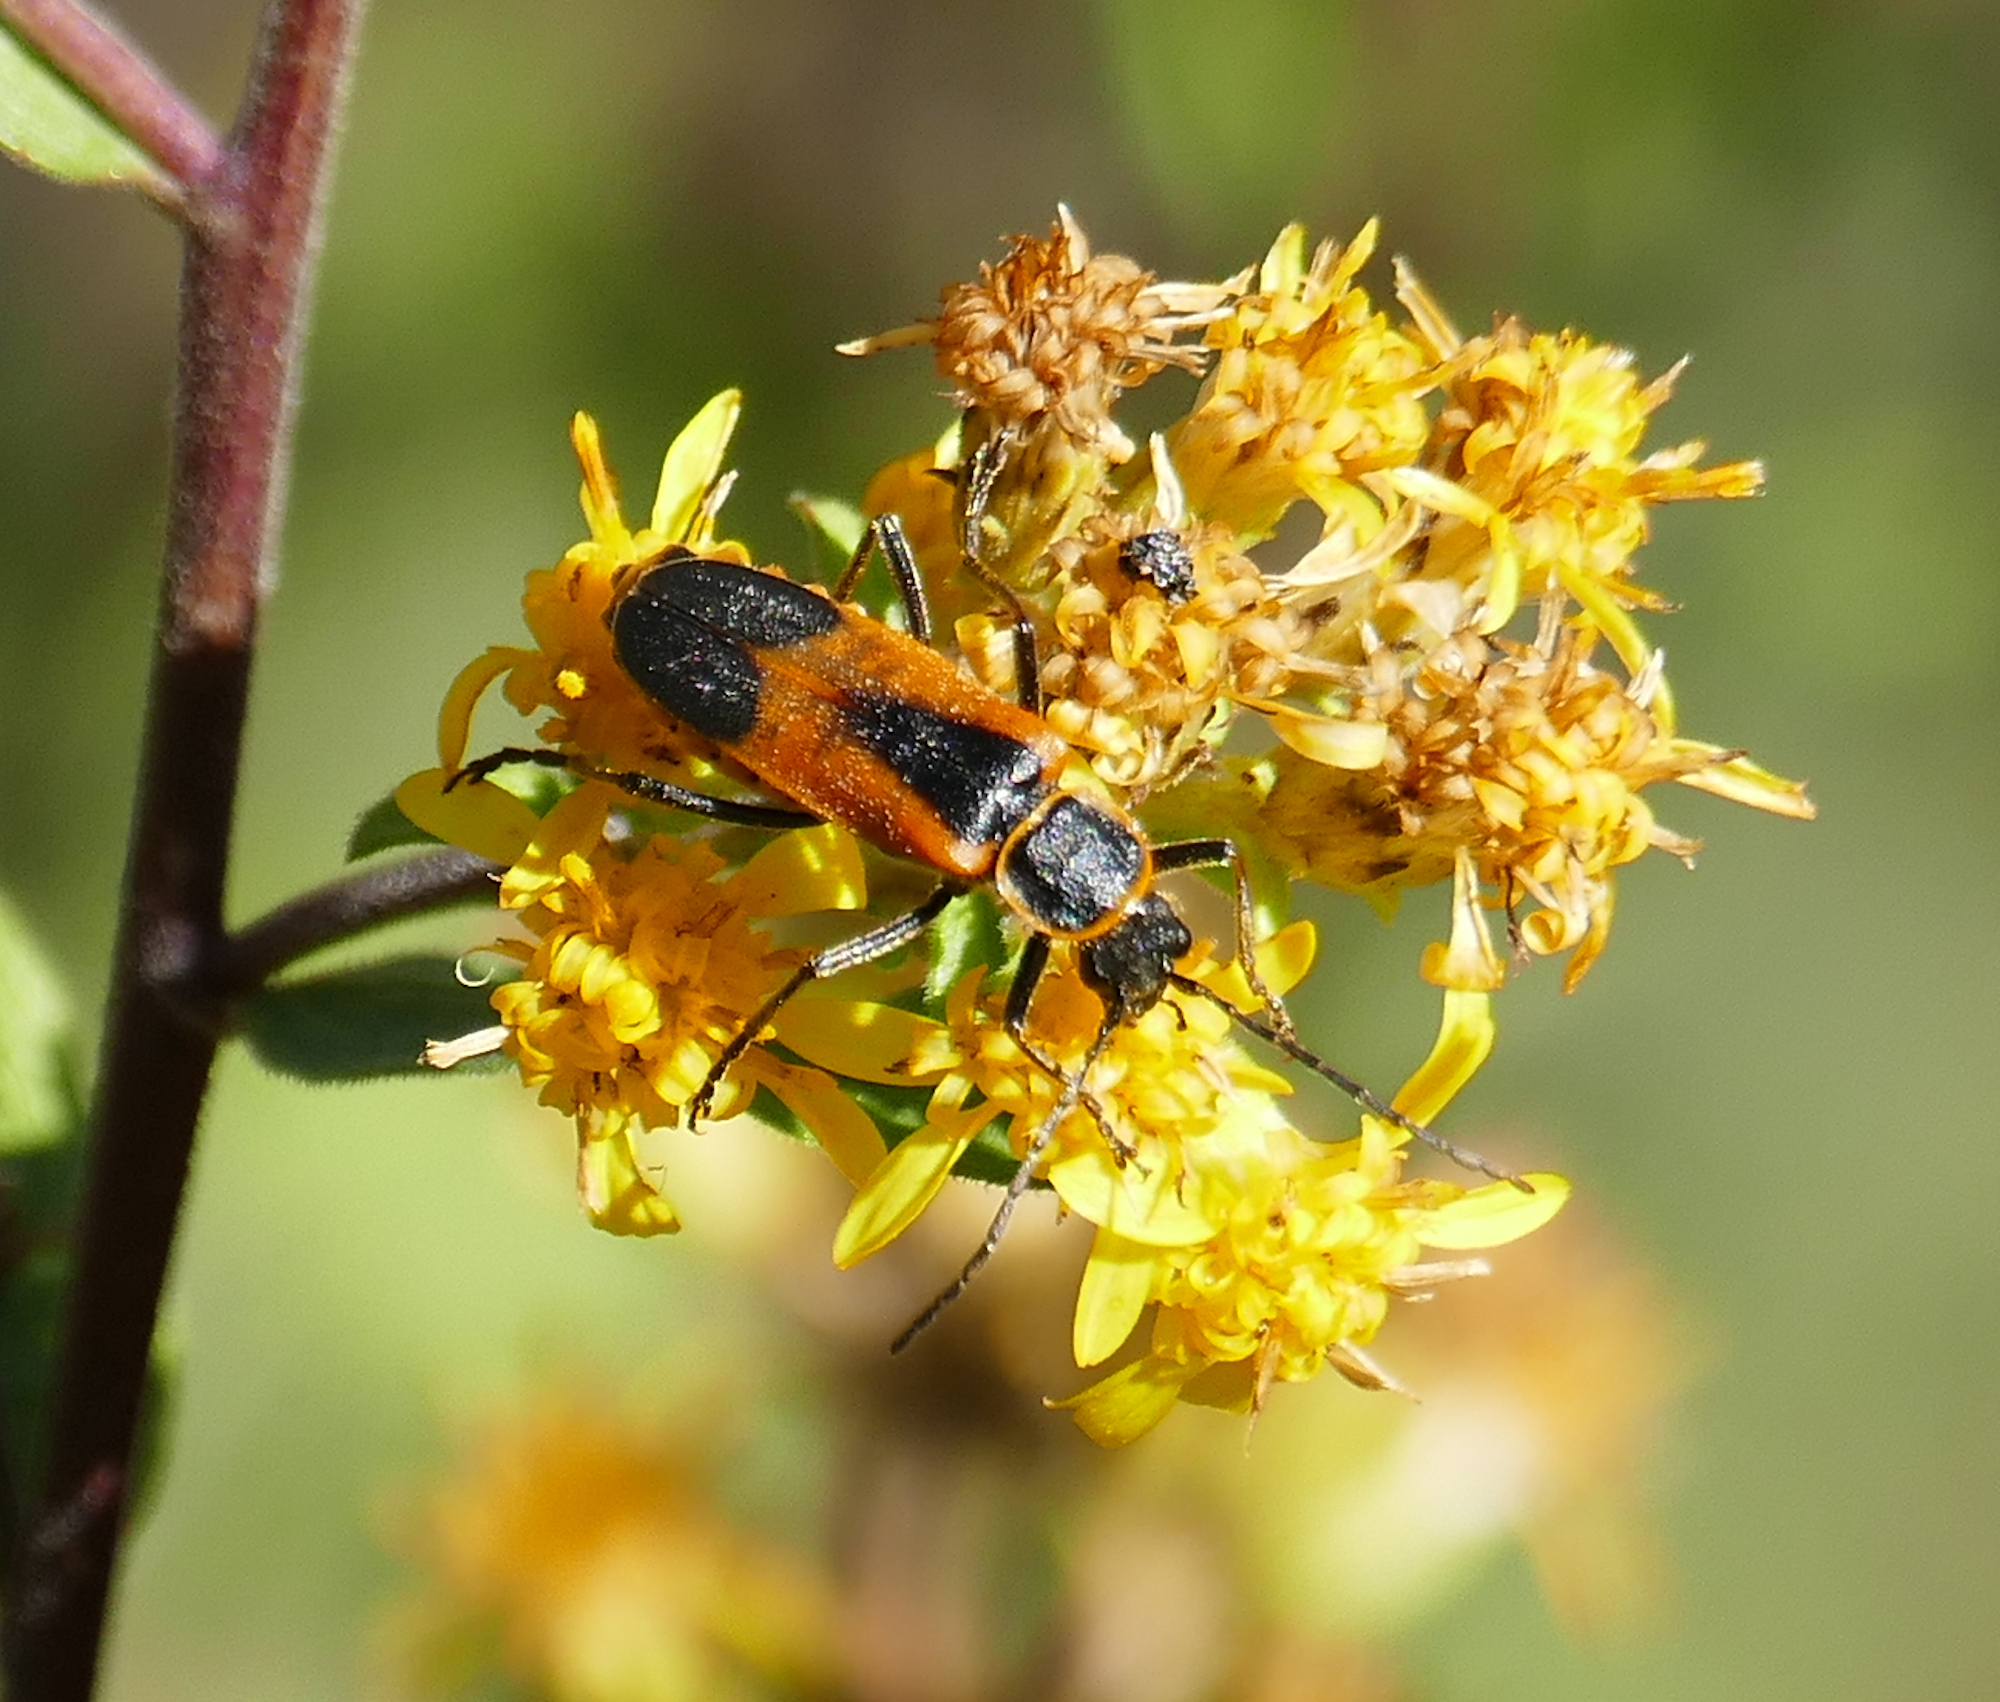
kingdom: Animalia
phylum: Arthropoda
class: Insecta
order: Coleoptera
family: Cantharidae
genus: Chauliognathus
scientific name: Chauliognathus limbicollis
